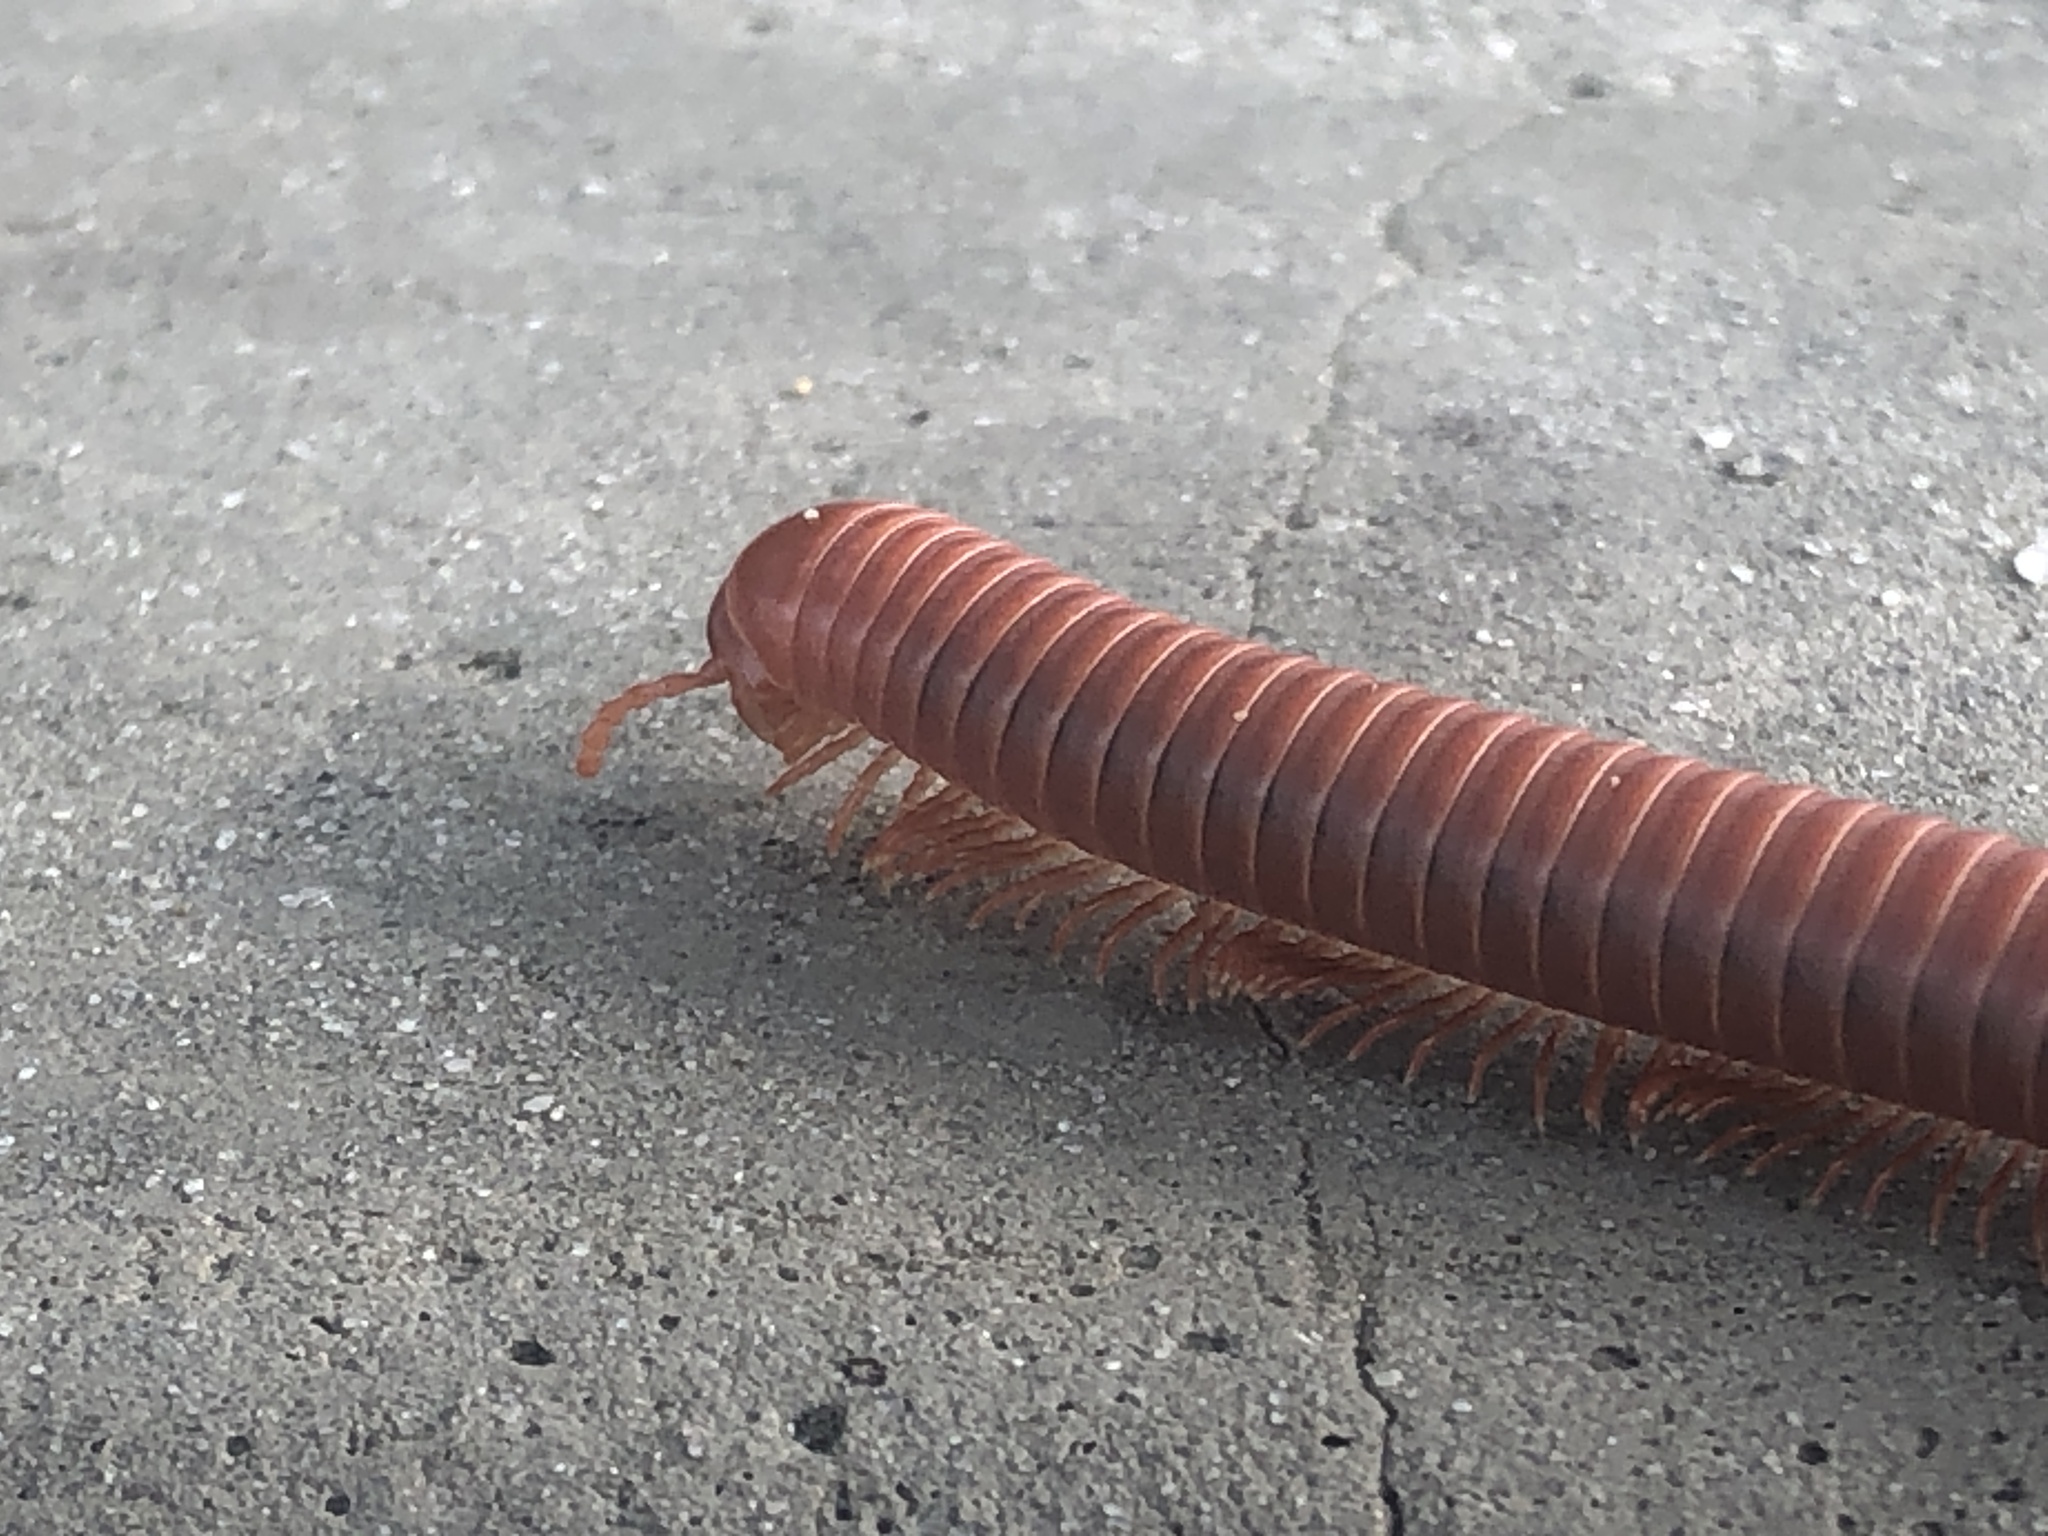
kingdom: Animalia
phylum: Arthropoda
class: Diplopoda
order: Spirobolida
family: Pachybolidae
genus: Trigoniulus
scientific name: Trigoniulus corallinus
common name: Millipede
